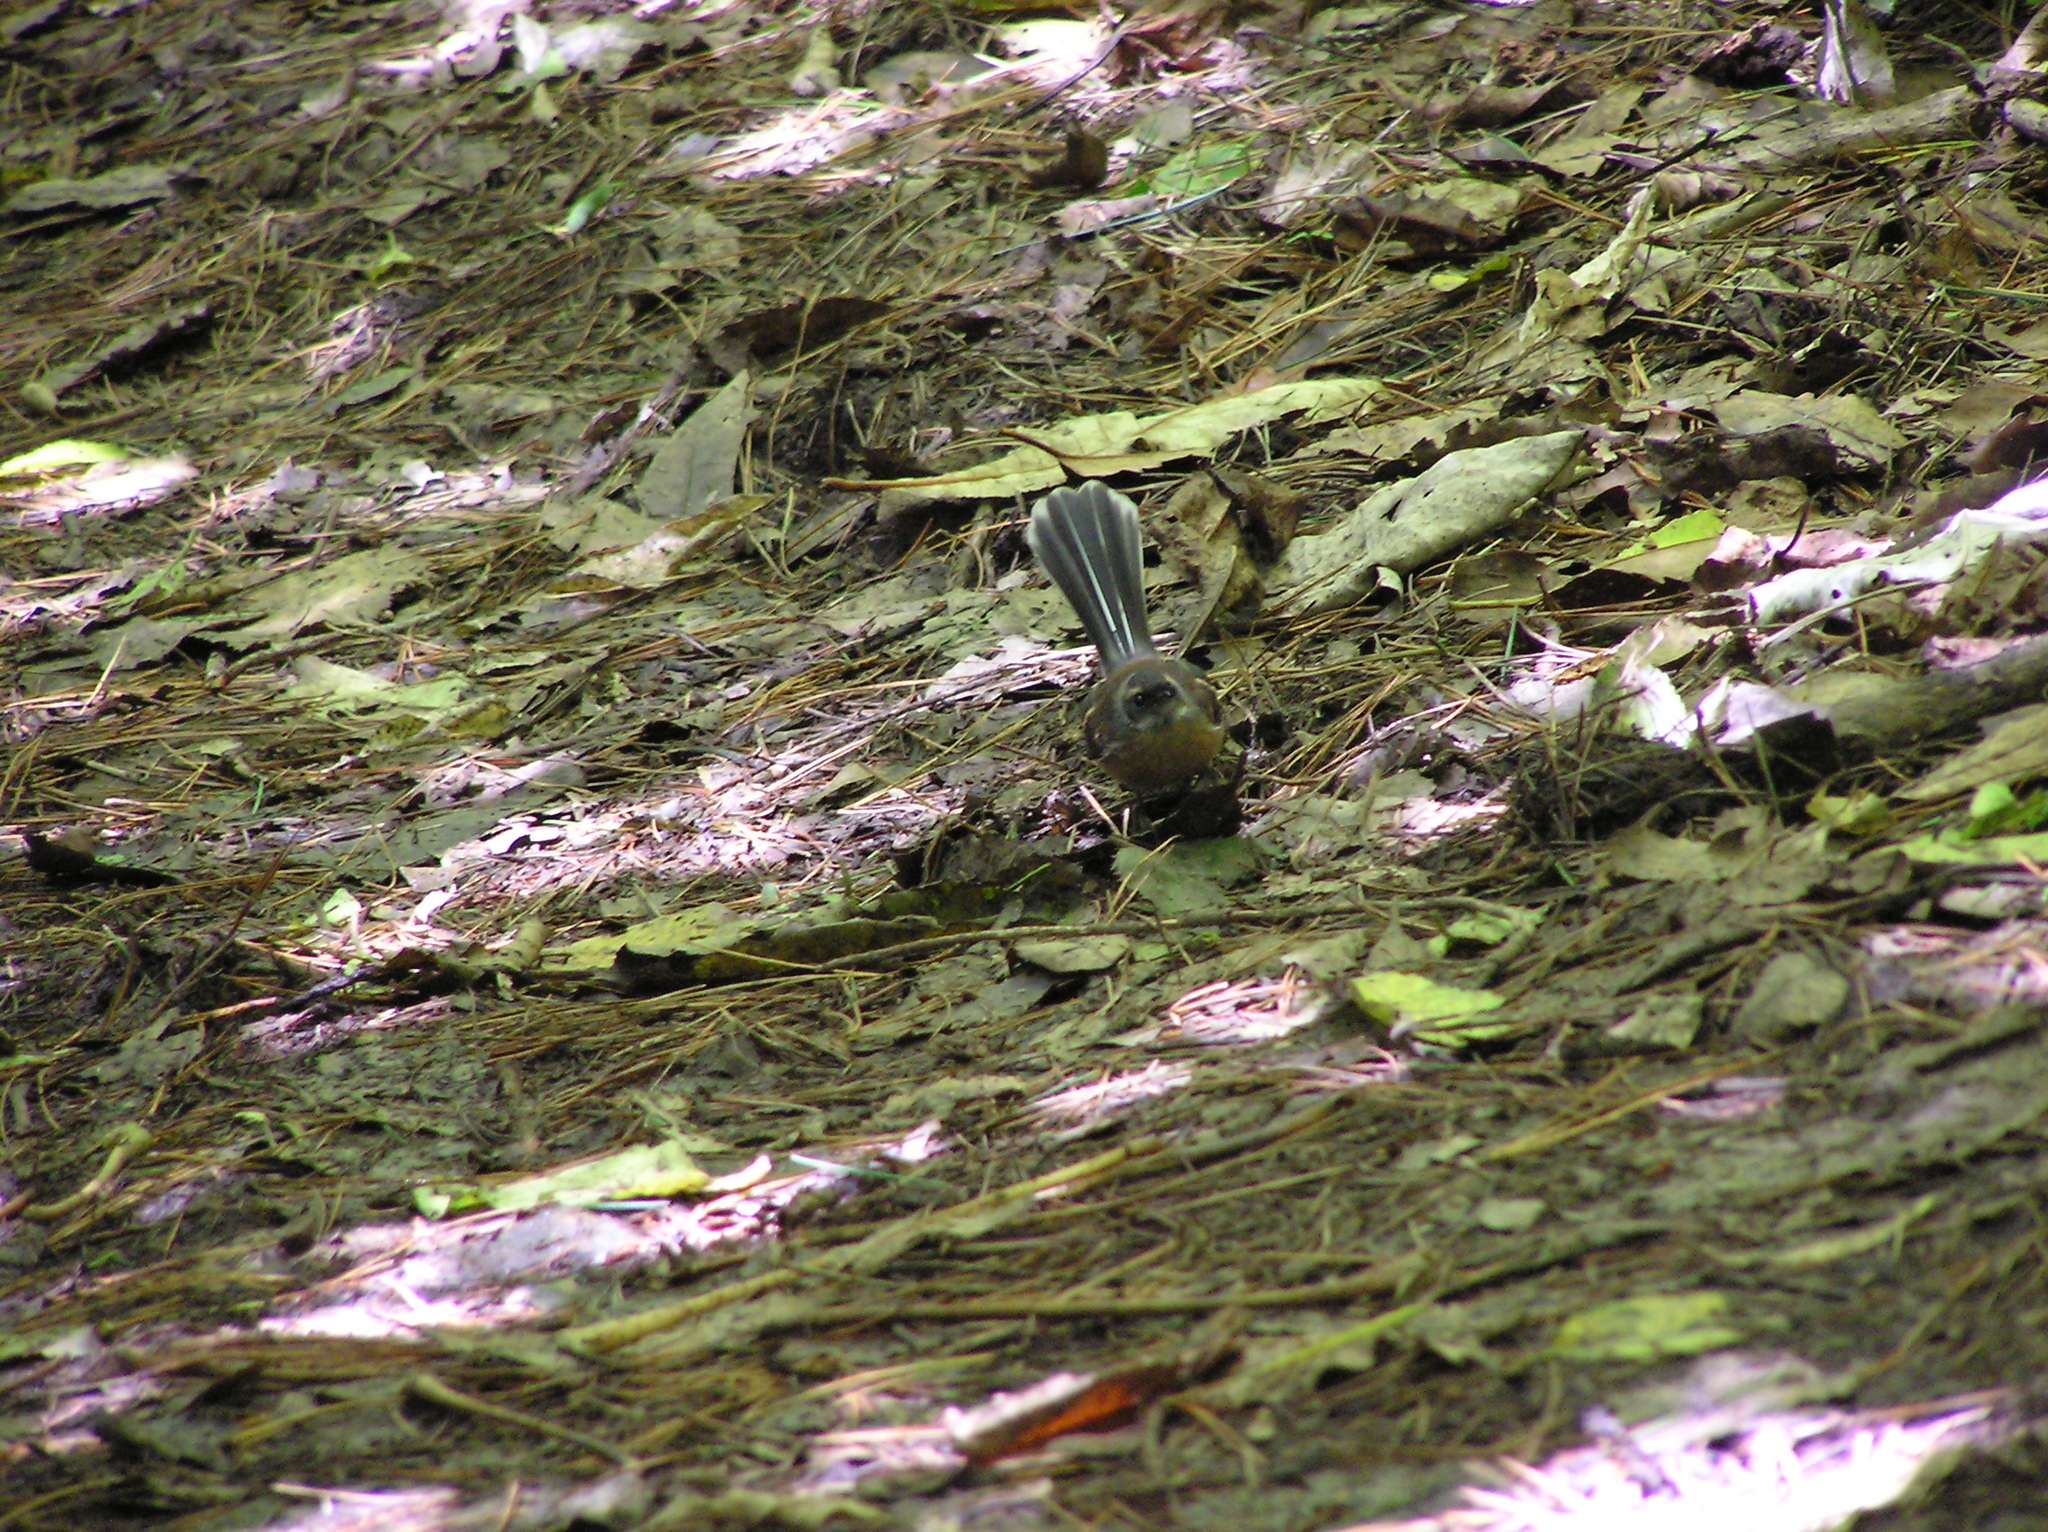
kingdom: Animalia
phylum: Chordata
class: Aves
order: Passeriformes
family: Rhipiduridae
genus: Rhipidura
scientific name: Rhipidura fuliginosa
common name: New zealand fantail
